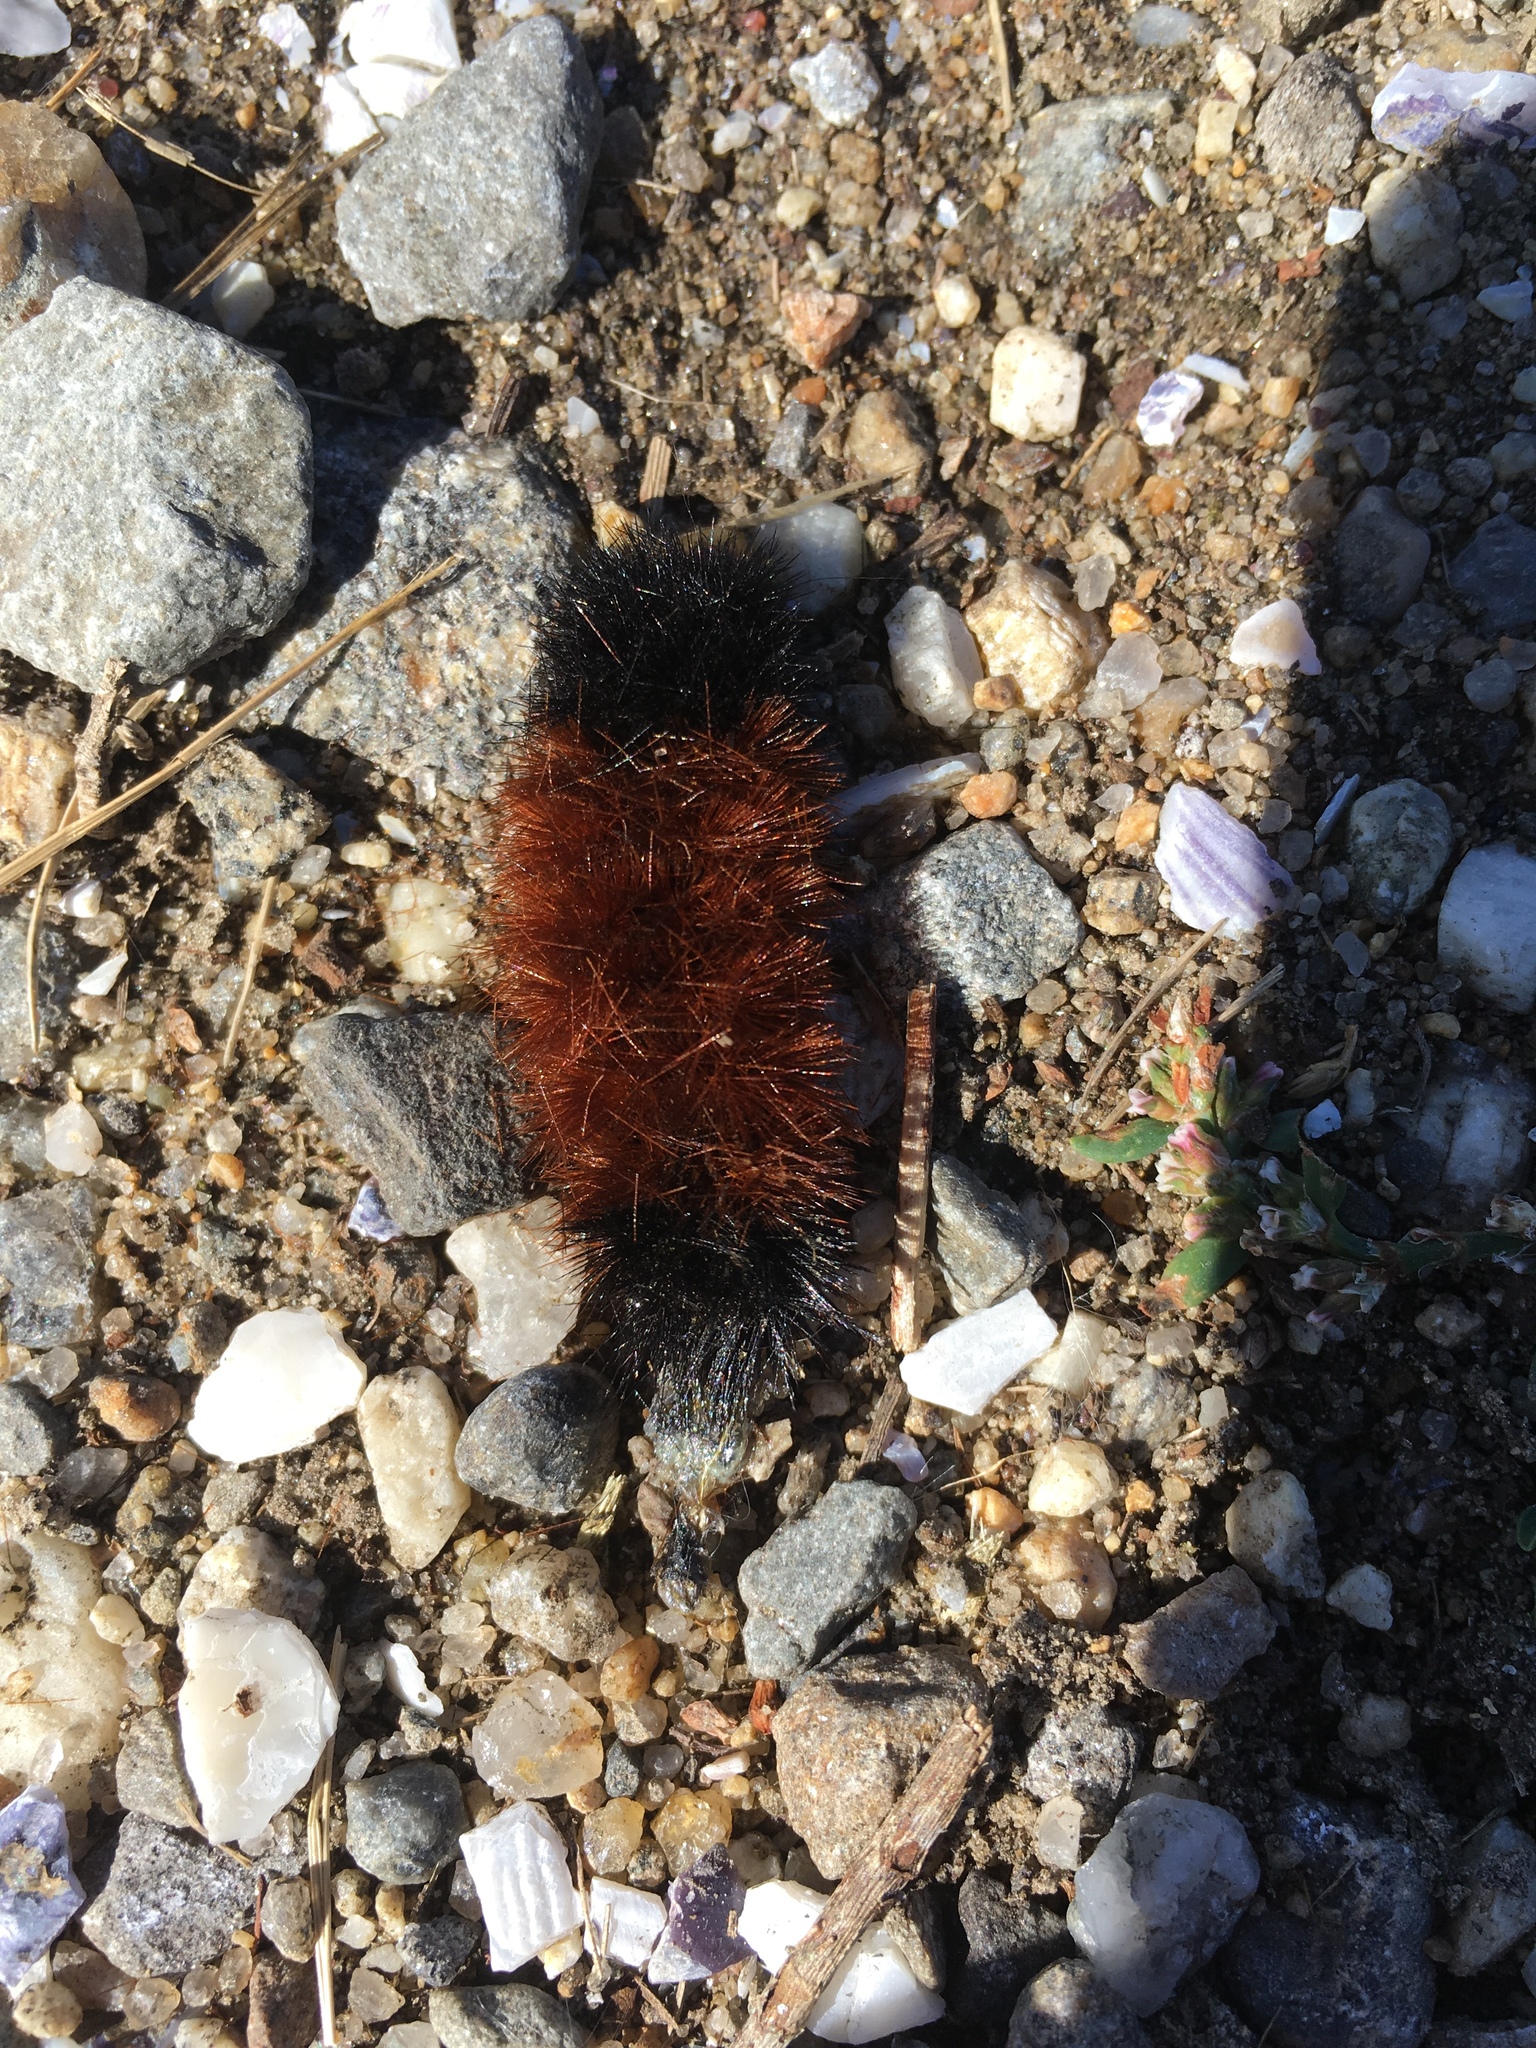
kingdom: Animalia
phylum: Arthropoda
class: Insecta
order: Lepidoptera
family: Erebidae
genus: Pyrrharctia
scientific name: Pyrrharctia isabella
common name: Isabella tiger moth
